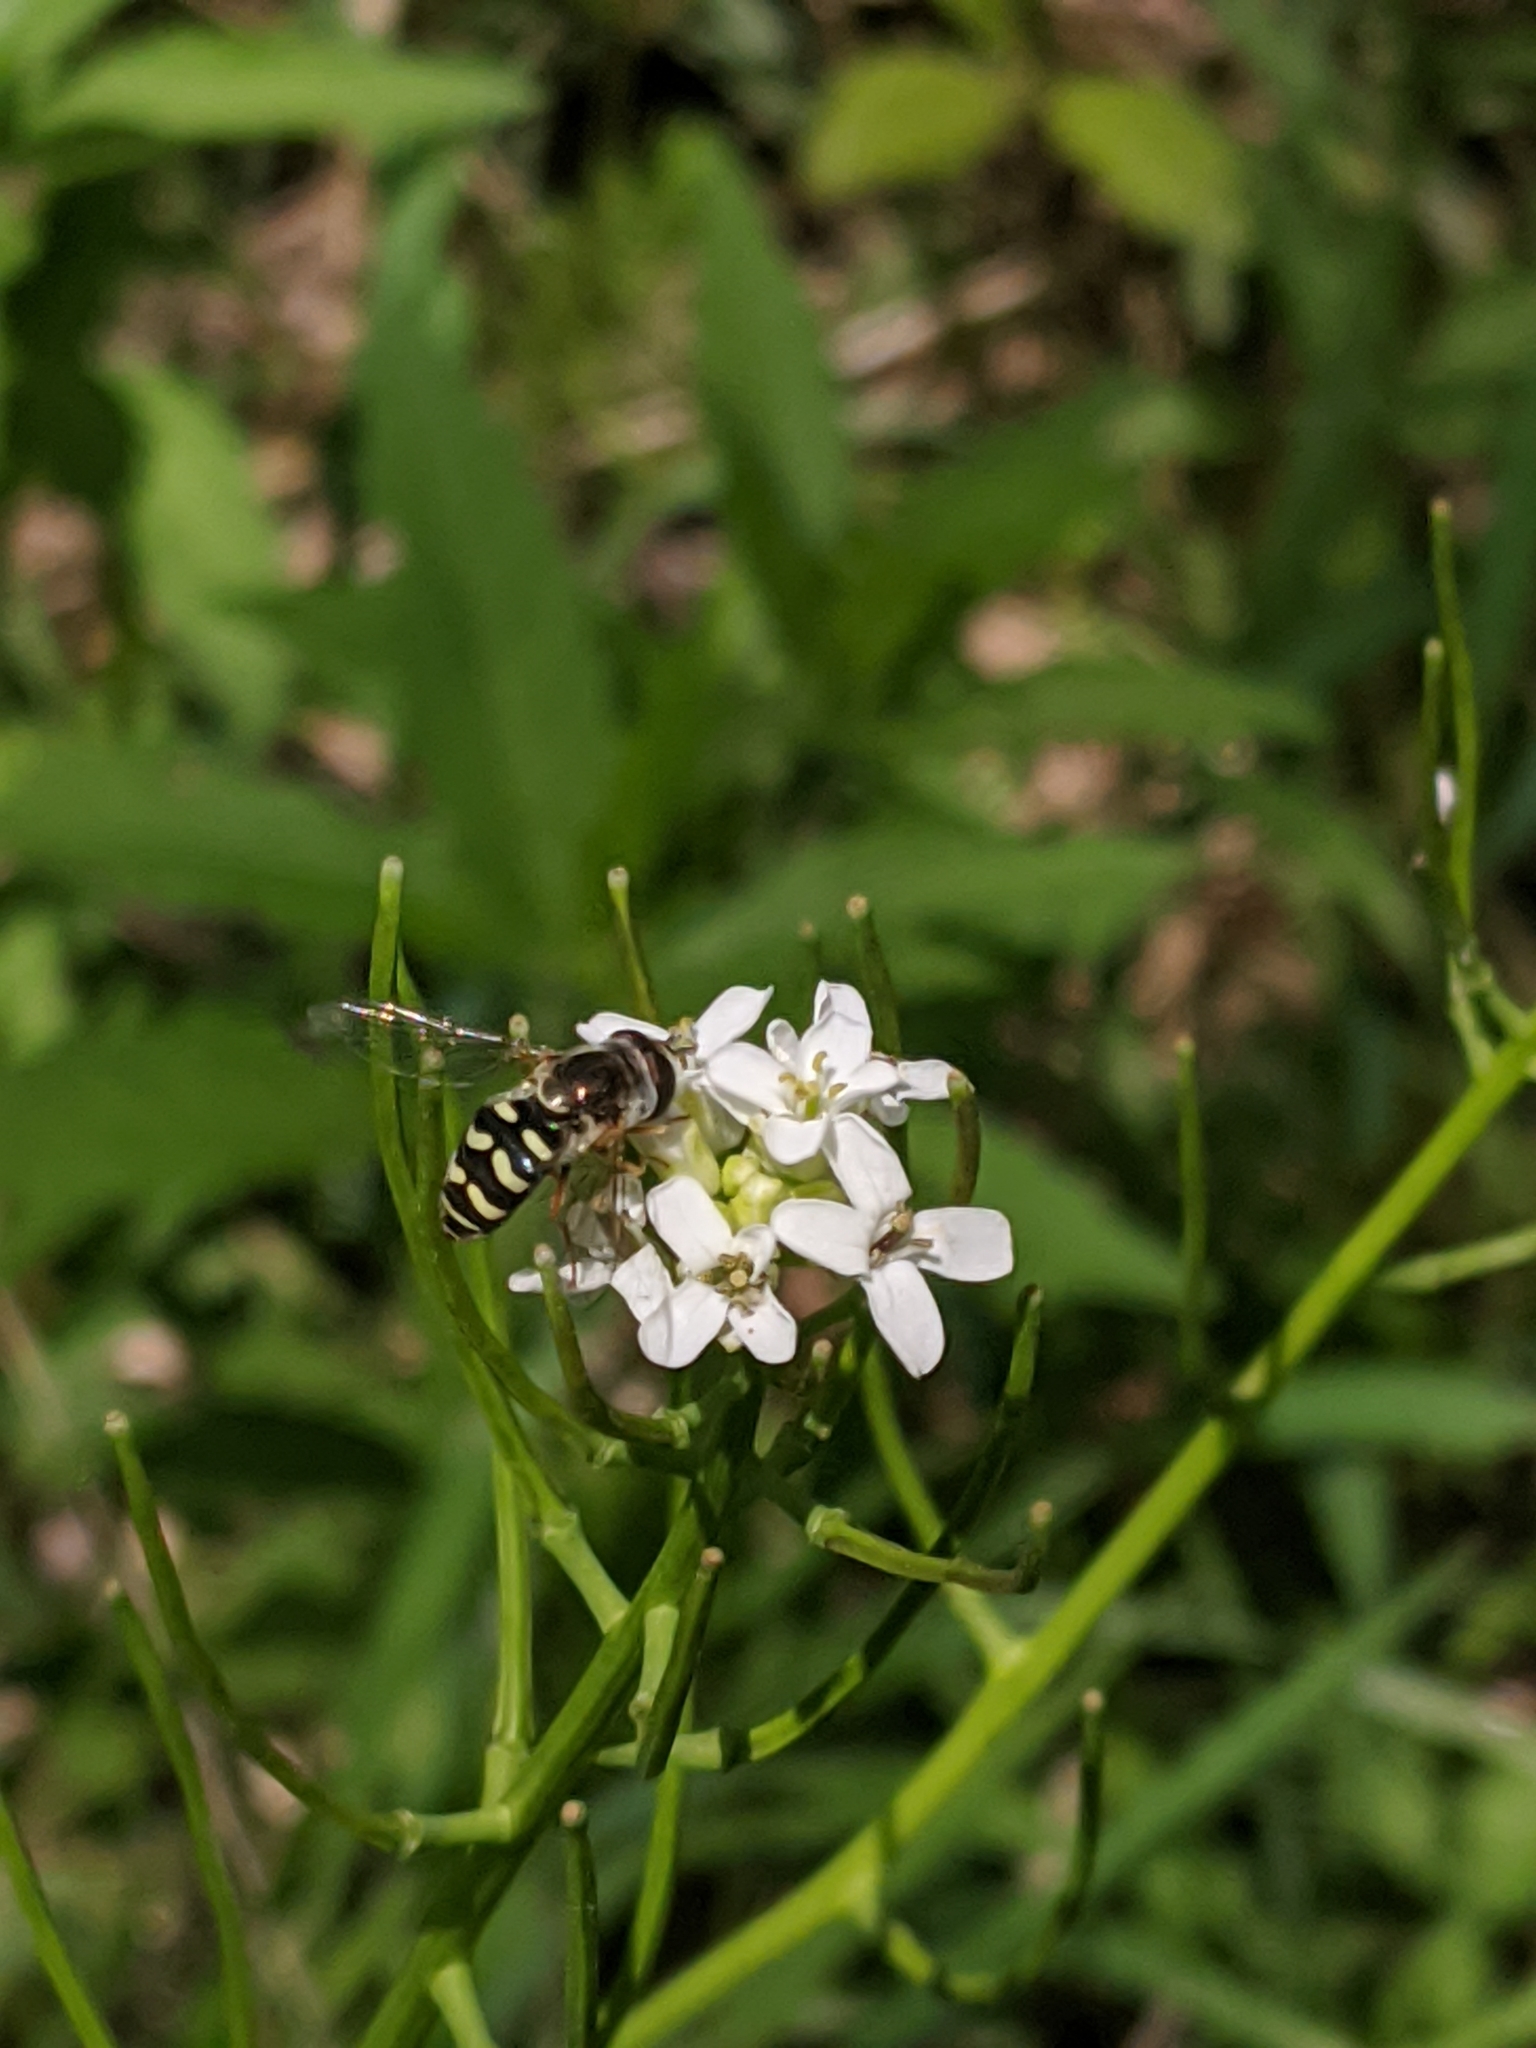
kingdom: Animalia
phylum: Arthropoda
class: Insecta
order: Diptera
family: Syrphidae
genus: Eupeodes
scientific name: Eupeodes volucris
